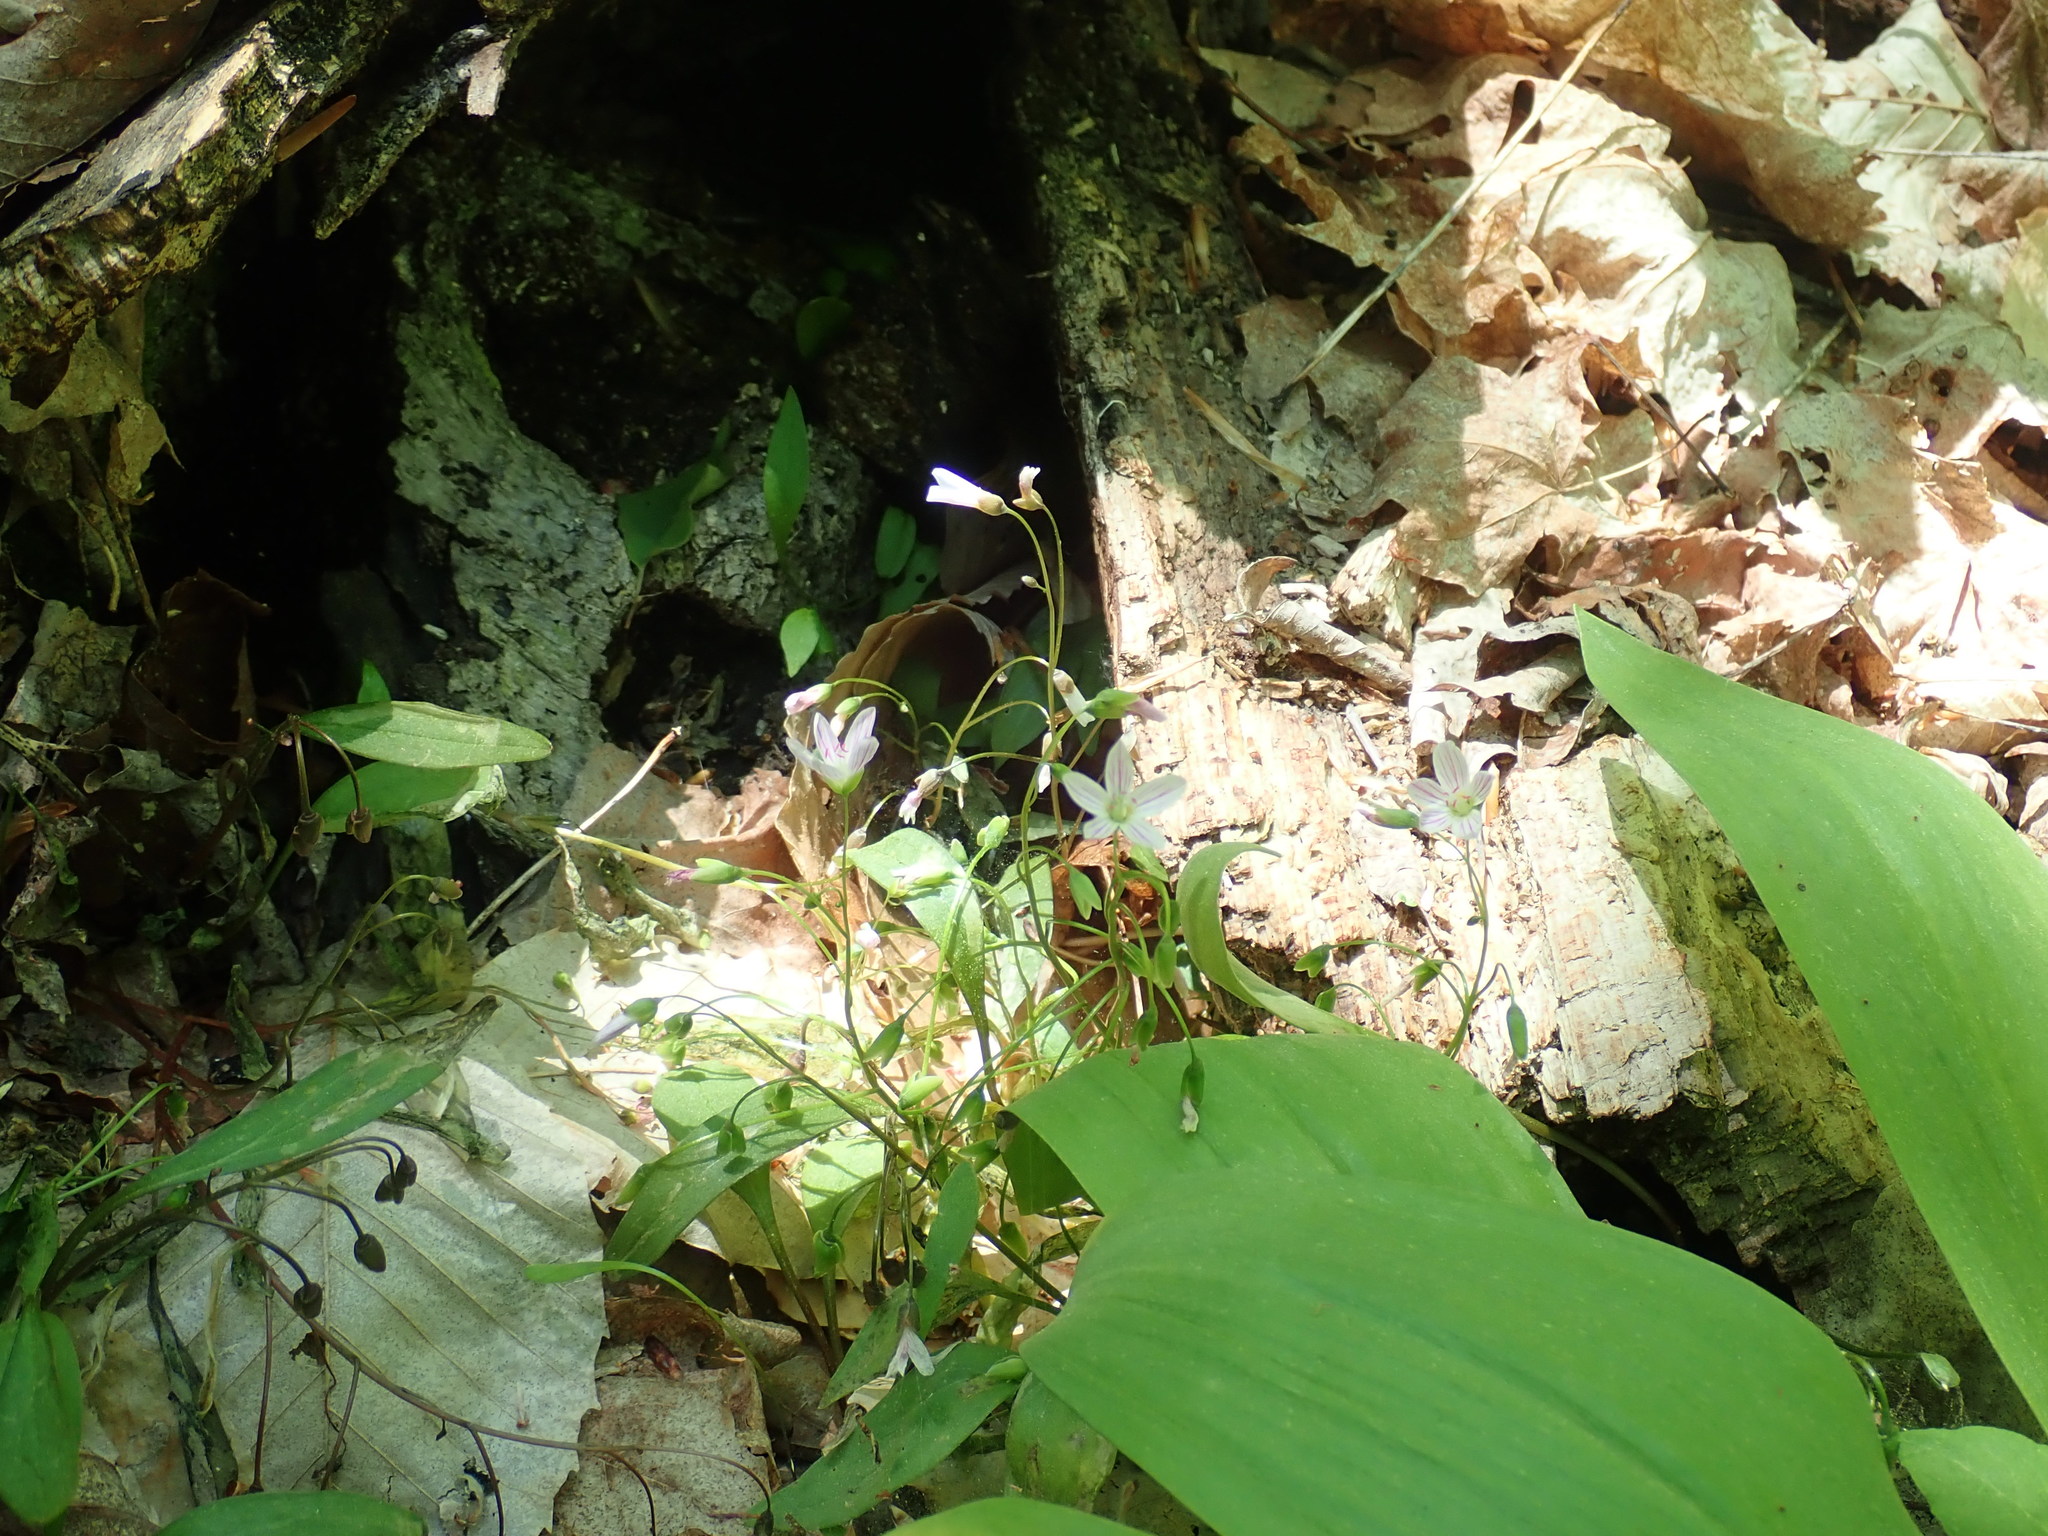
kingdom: Plantae
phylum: Tracheophyta
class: Magnoliopsida
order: Caryophyllales
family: Montiaceae
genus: Claytonia
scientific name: Claytonia caroliniana
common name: Carolina spring beauty
